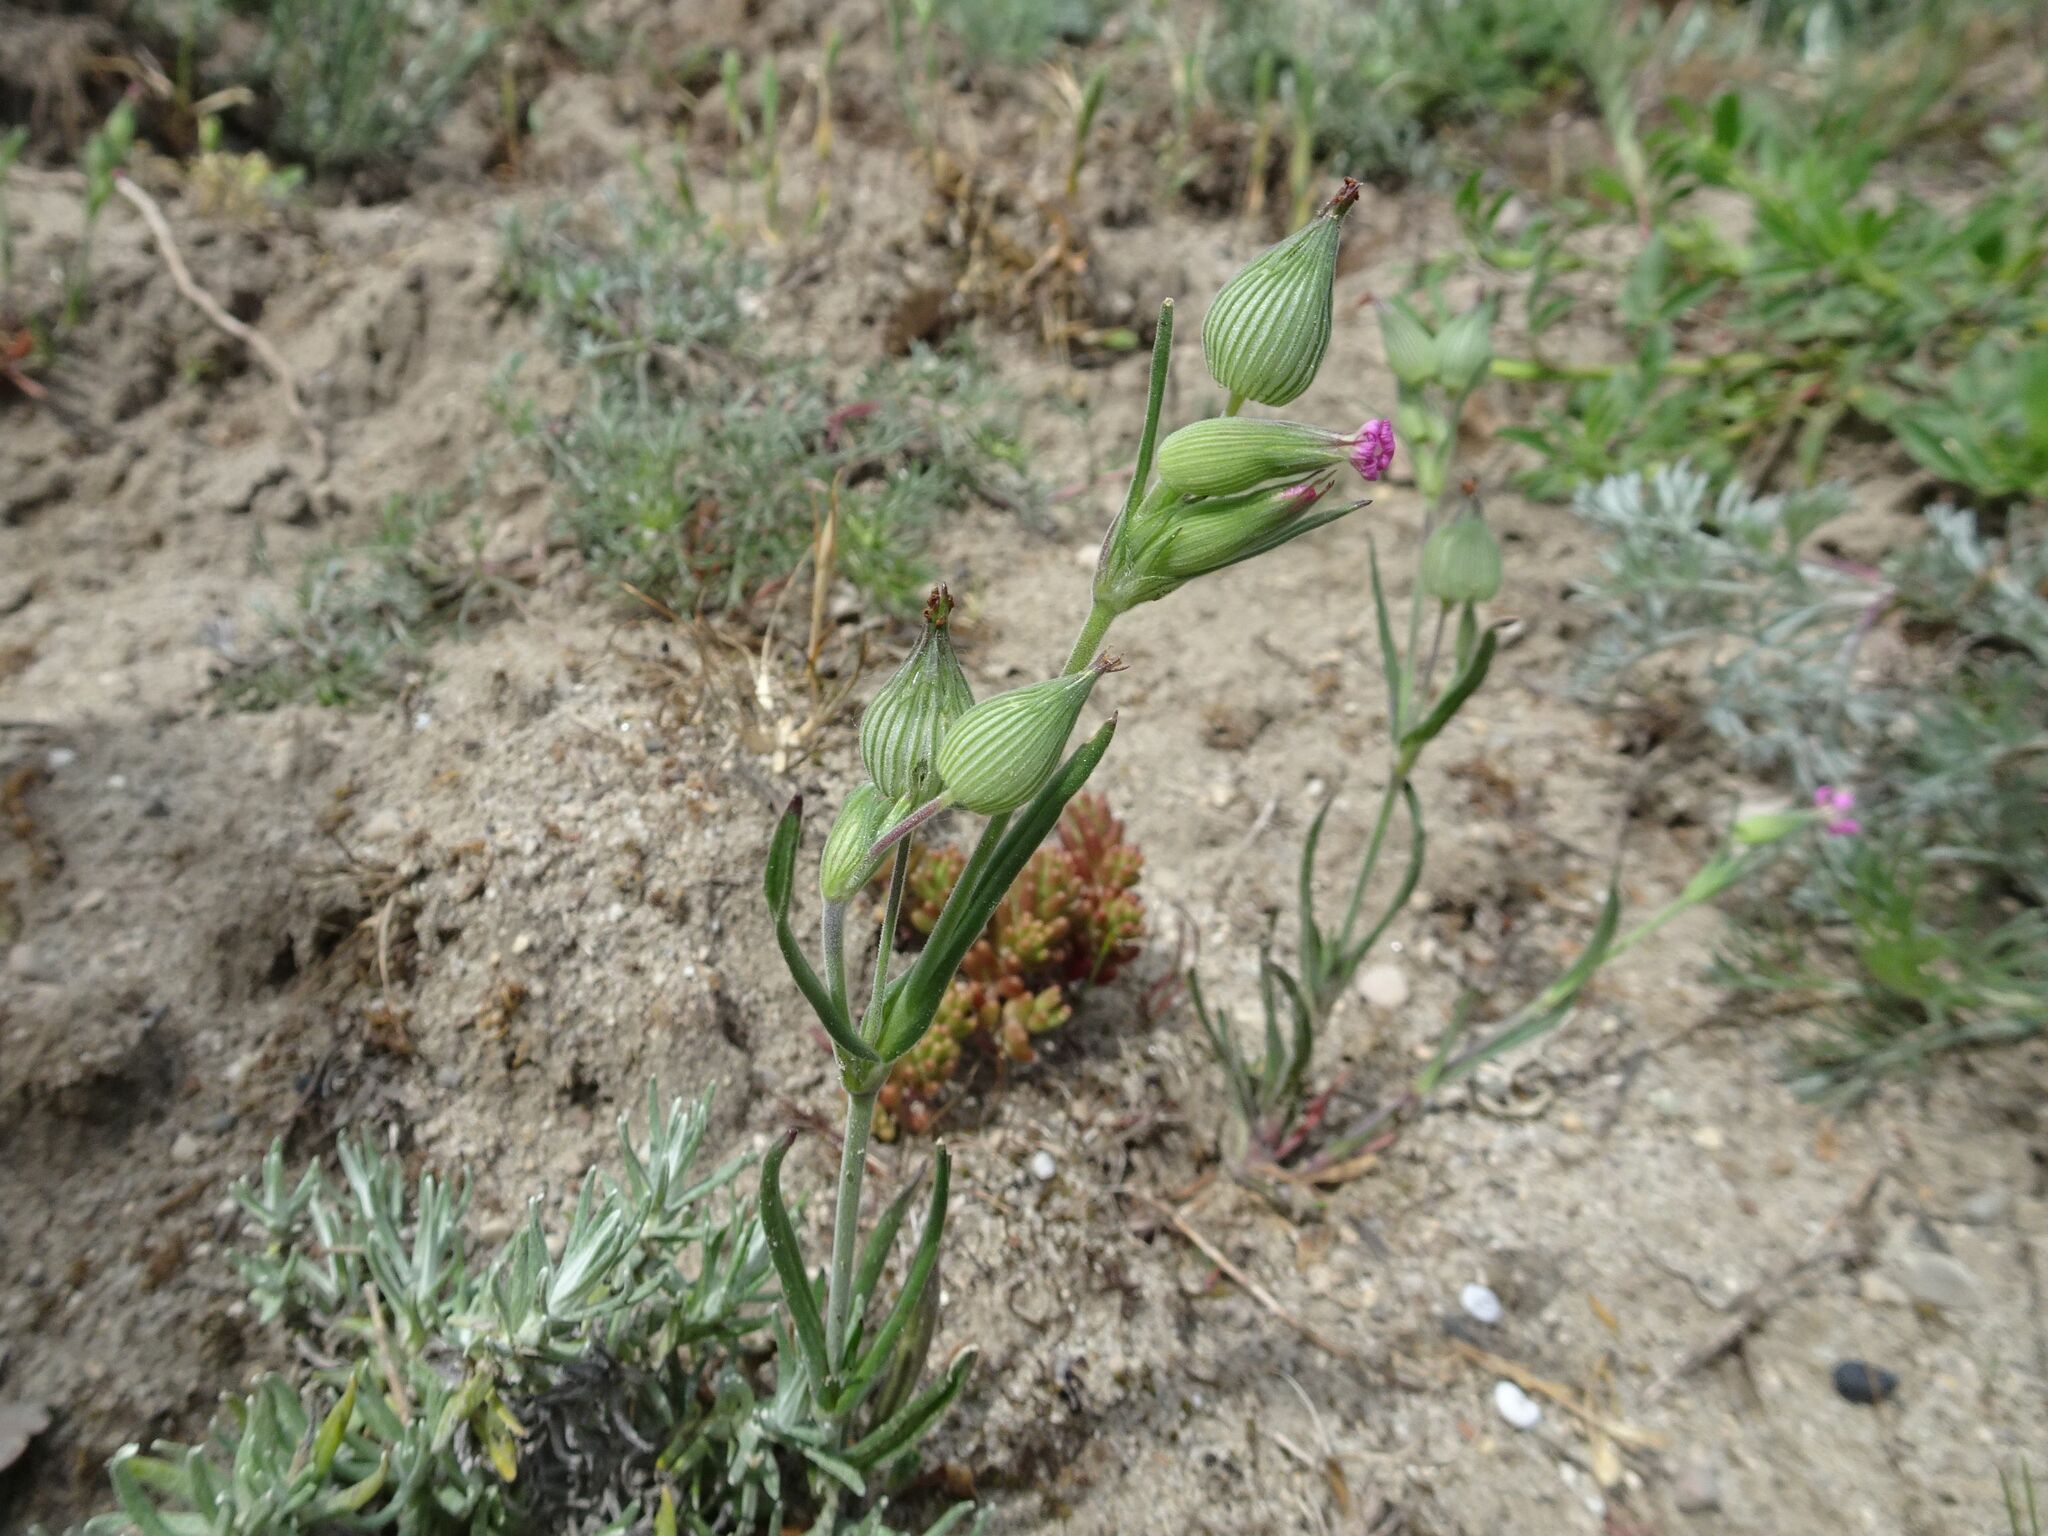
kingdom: Plantae
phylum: Tracheophyta
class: Magnoliopsida
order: Caryophyllales
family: Caryophyllaceae
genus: Silene
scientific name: Silene conica
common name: Sand catchfly
